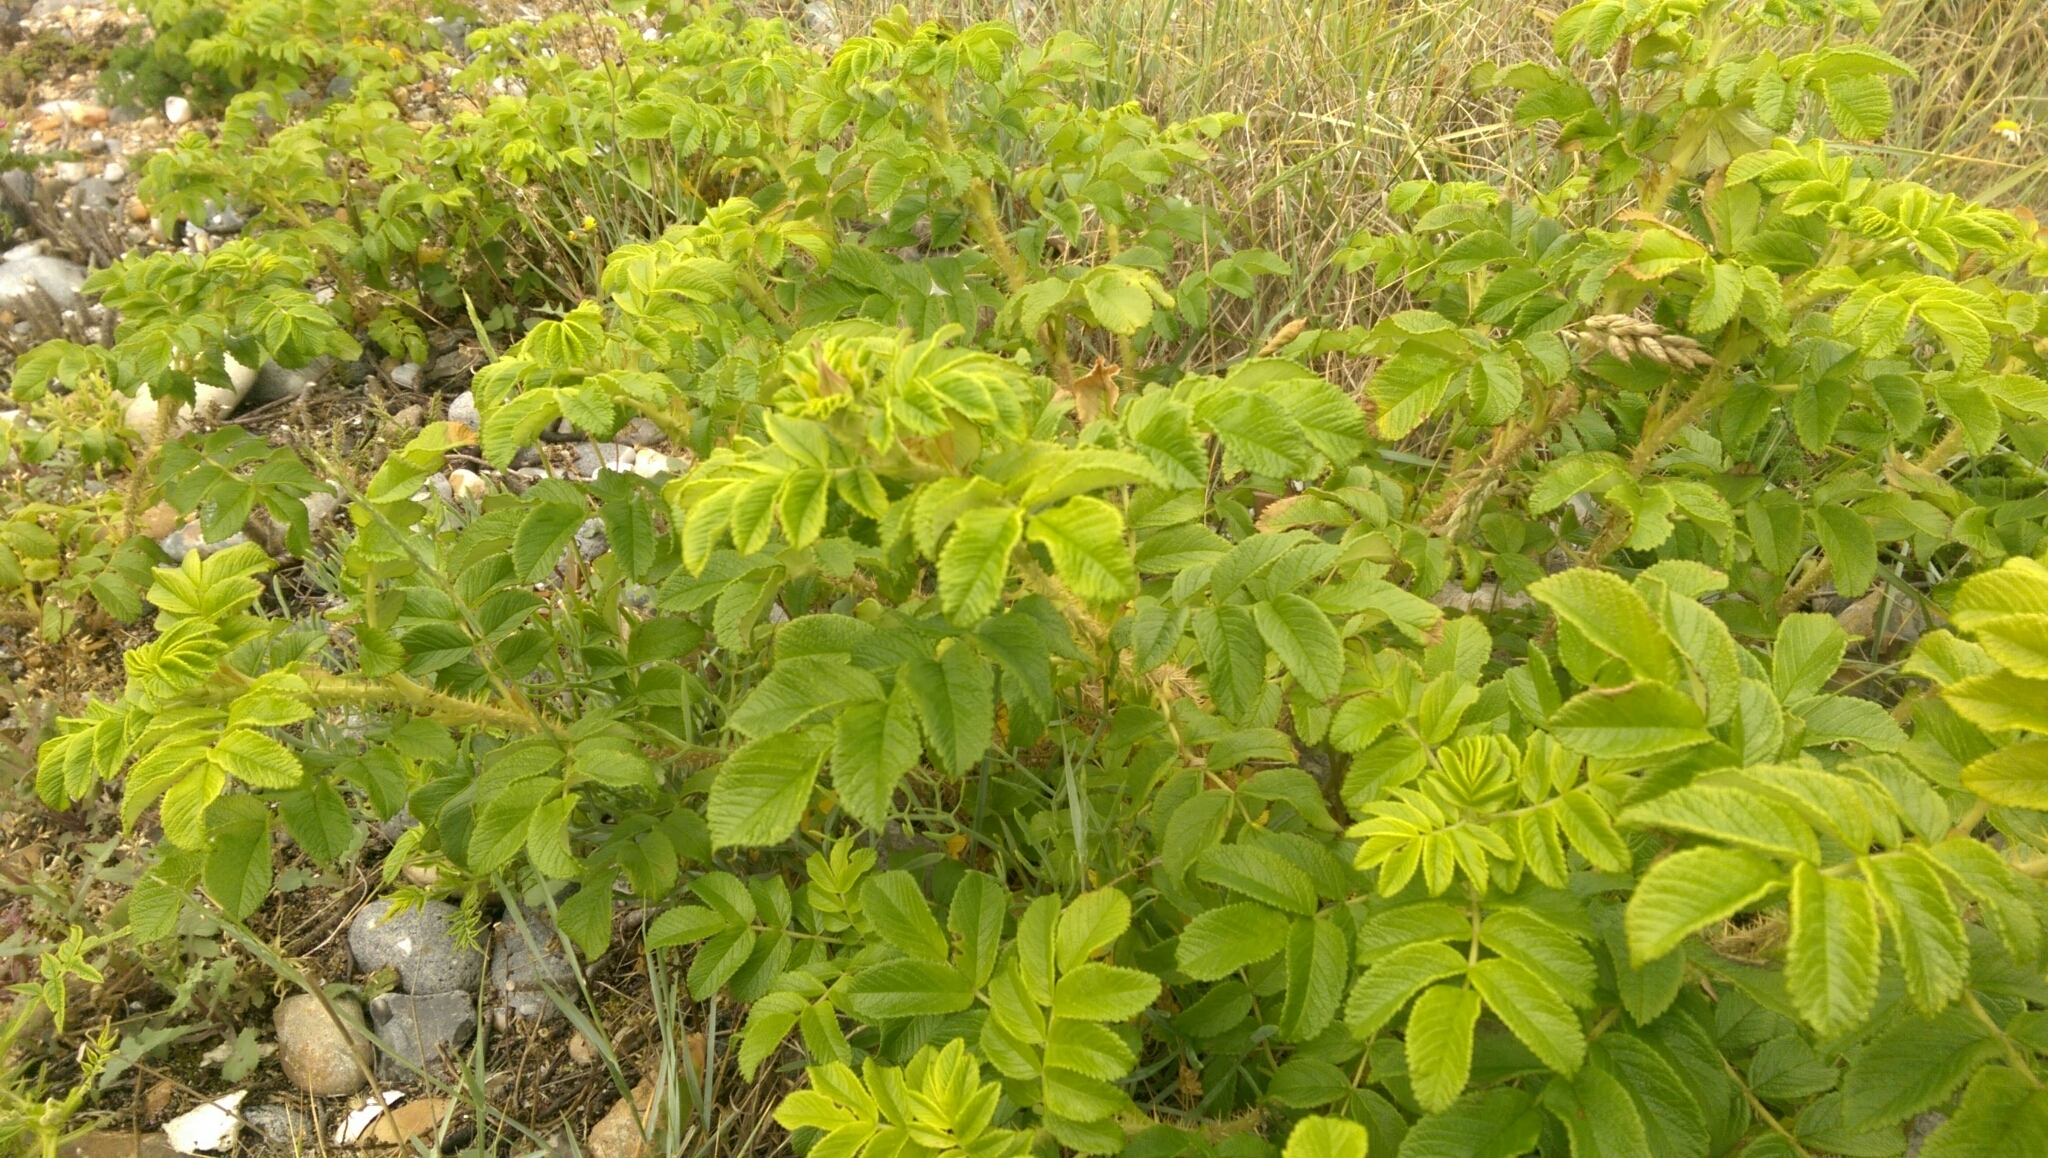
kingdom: Plantae
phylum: Tracheophyta
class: Magnoliopsida
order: Rosales
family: Rosaceae
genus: Rosa
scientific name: Rosa rugosa
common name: Japanese rose
